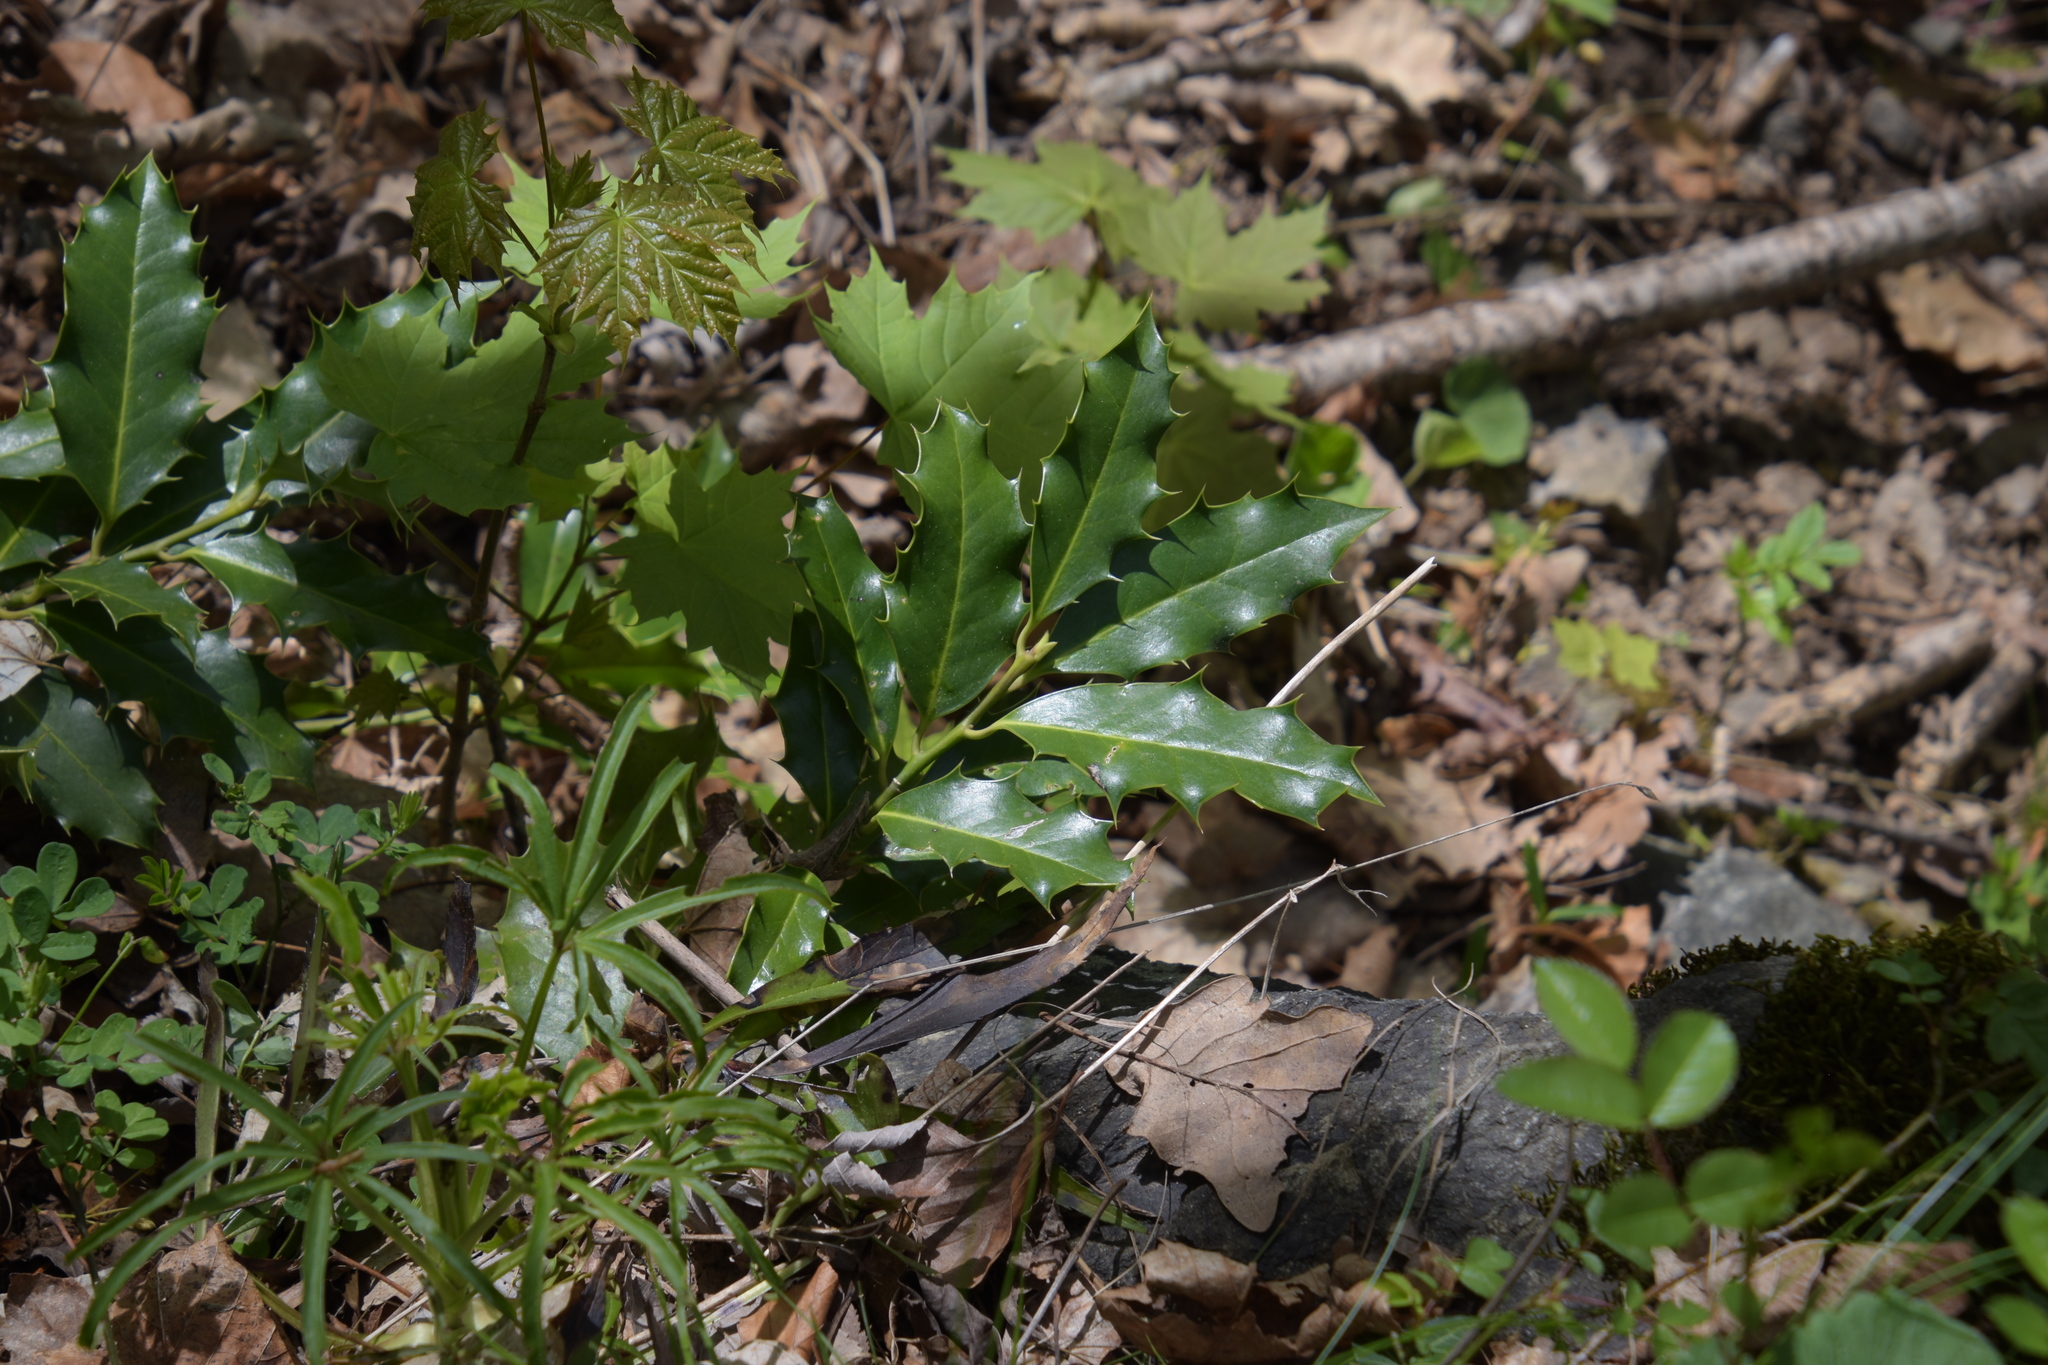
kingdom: Plantae
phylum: Tracheophyta
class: Magnoliopsida
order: Aquifoliales
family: Aquifoliaceae
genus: Ilex
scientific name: Ilex aquifolium
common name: English holly
